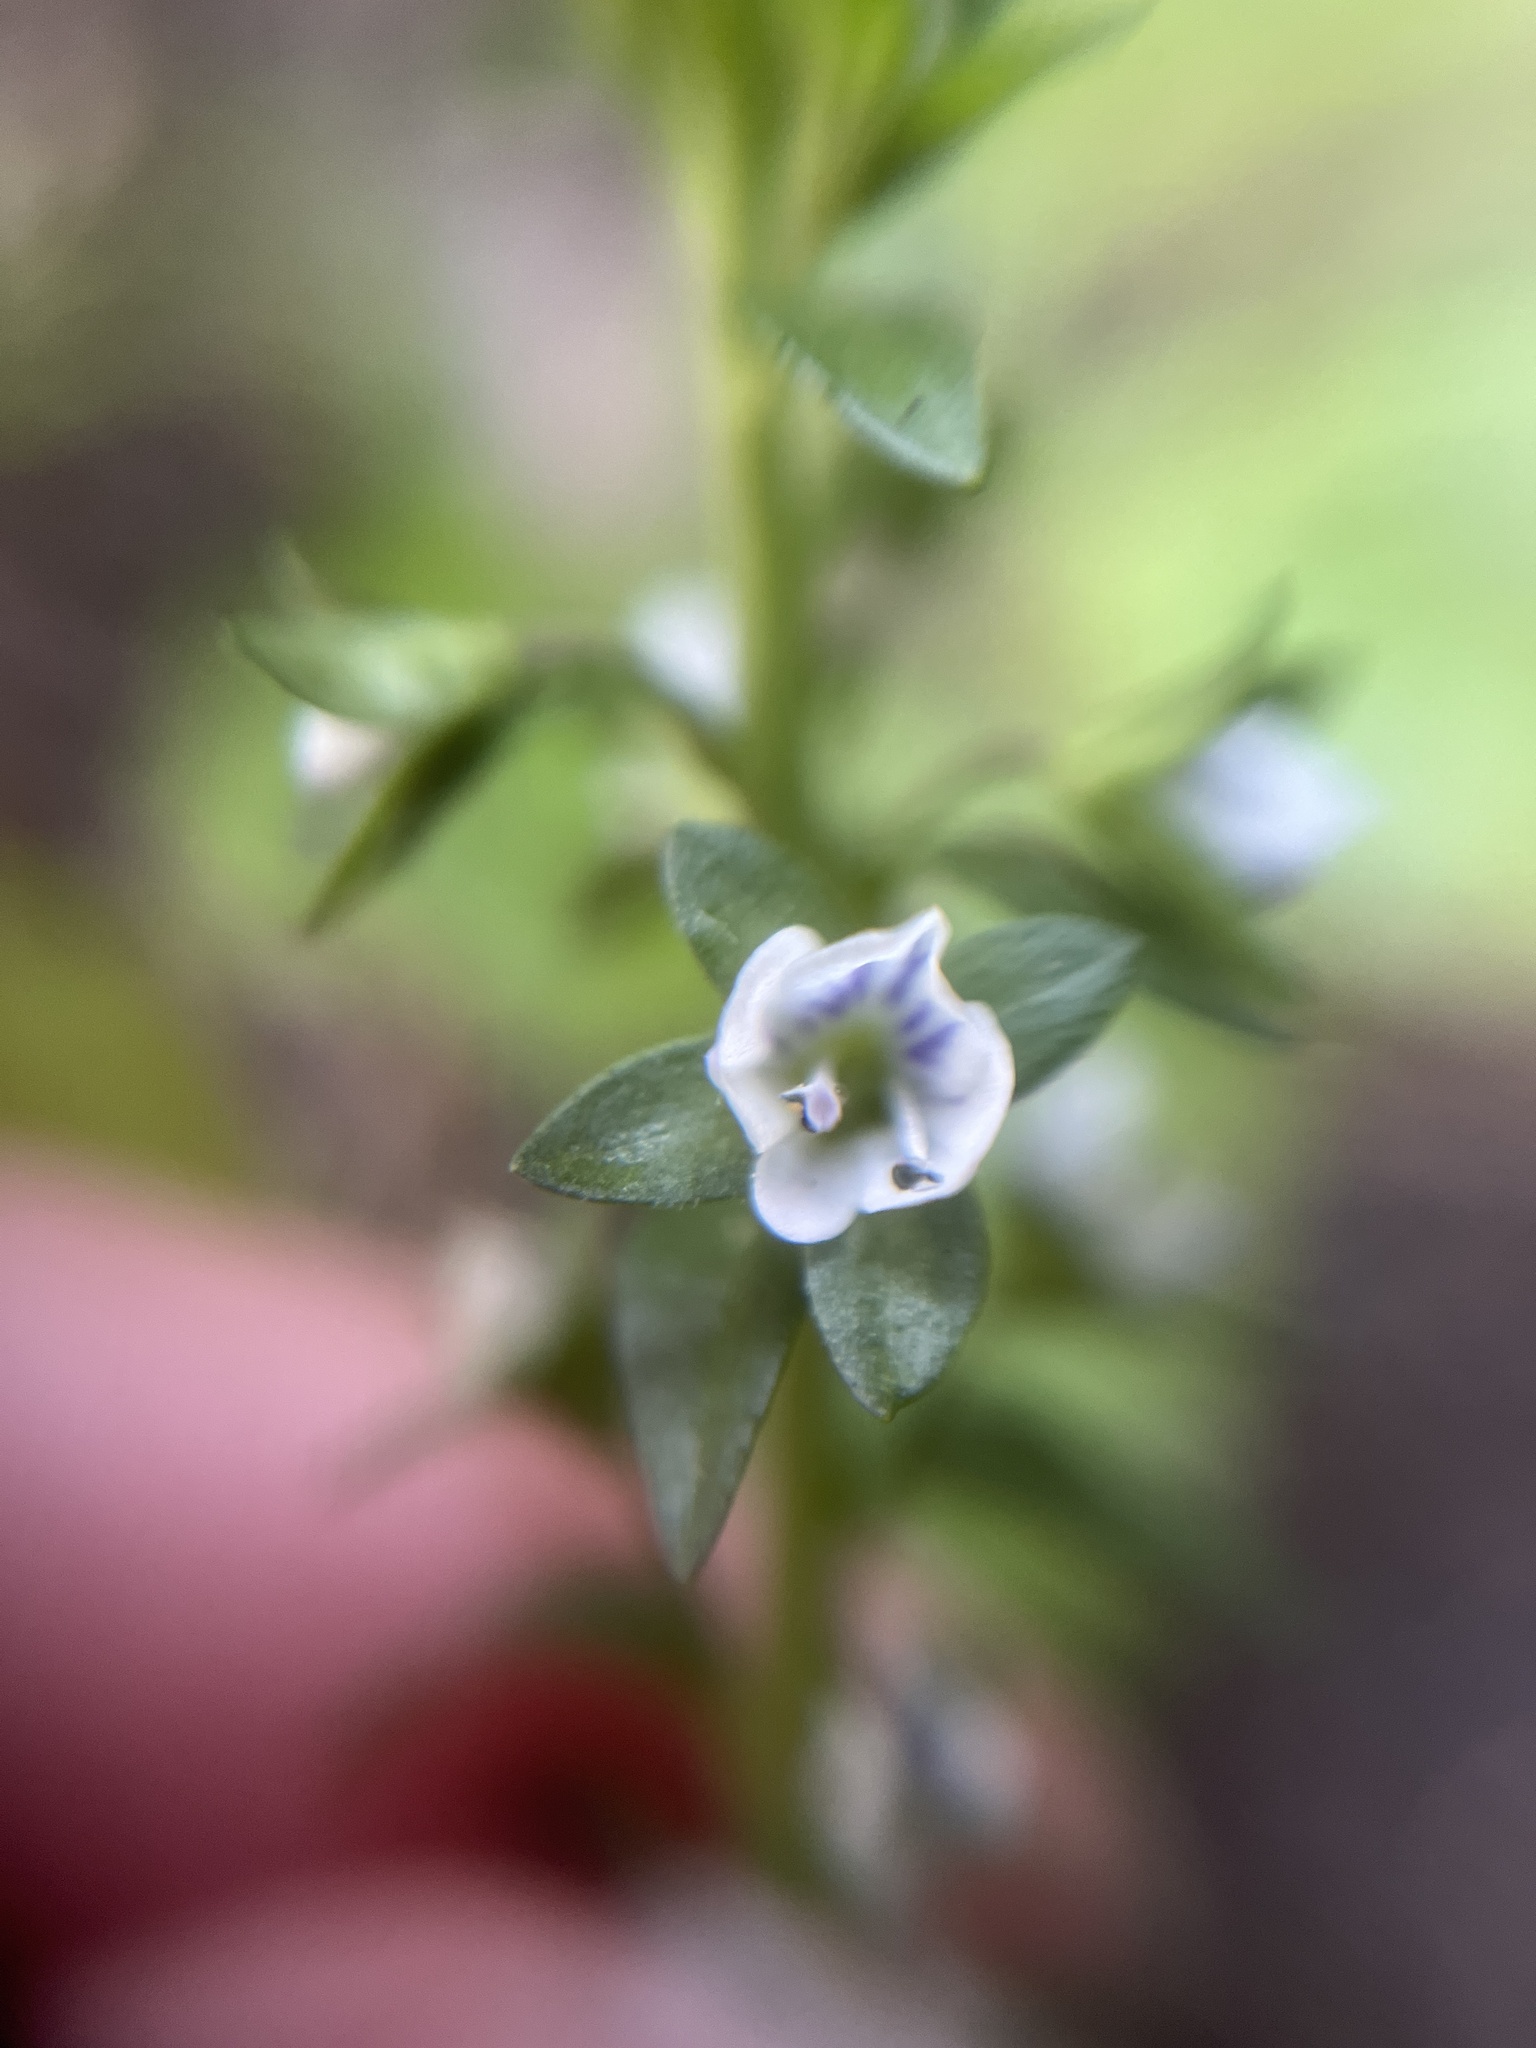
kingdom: Plantae
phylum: Tracheophyta
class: Magnoliopsida
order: Lamiales
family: Plantaginaceae
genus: Veronica
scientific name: Veronica serpyllifolia
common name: Thyme-leaved speedwell
